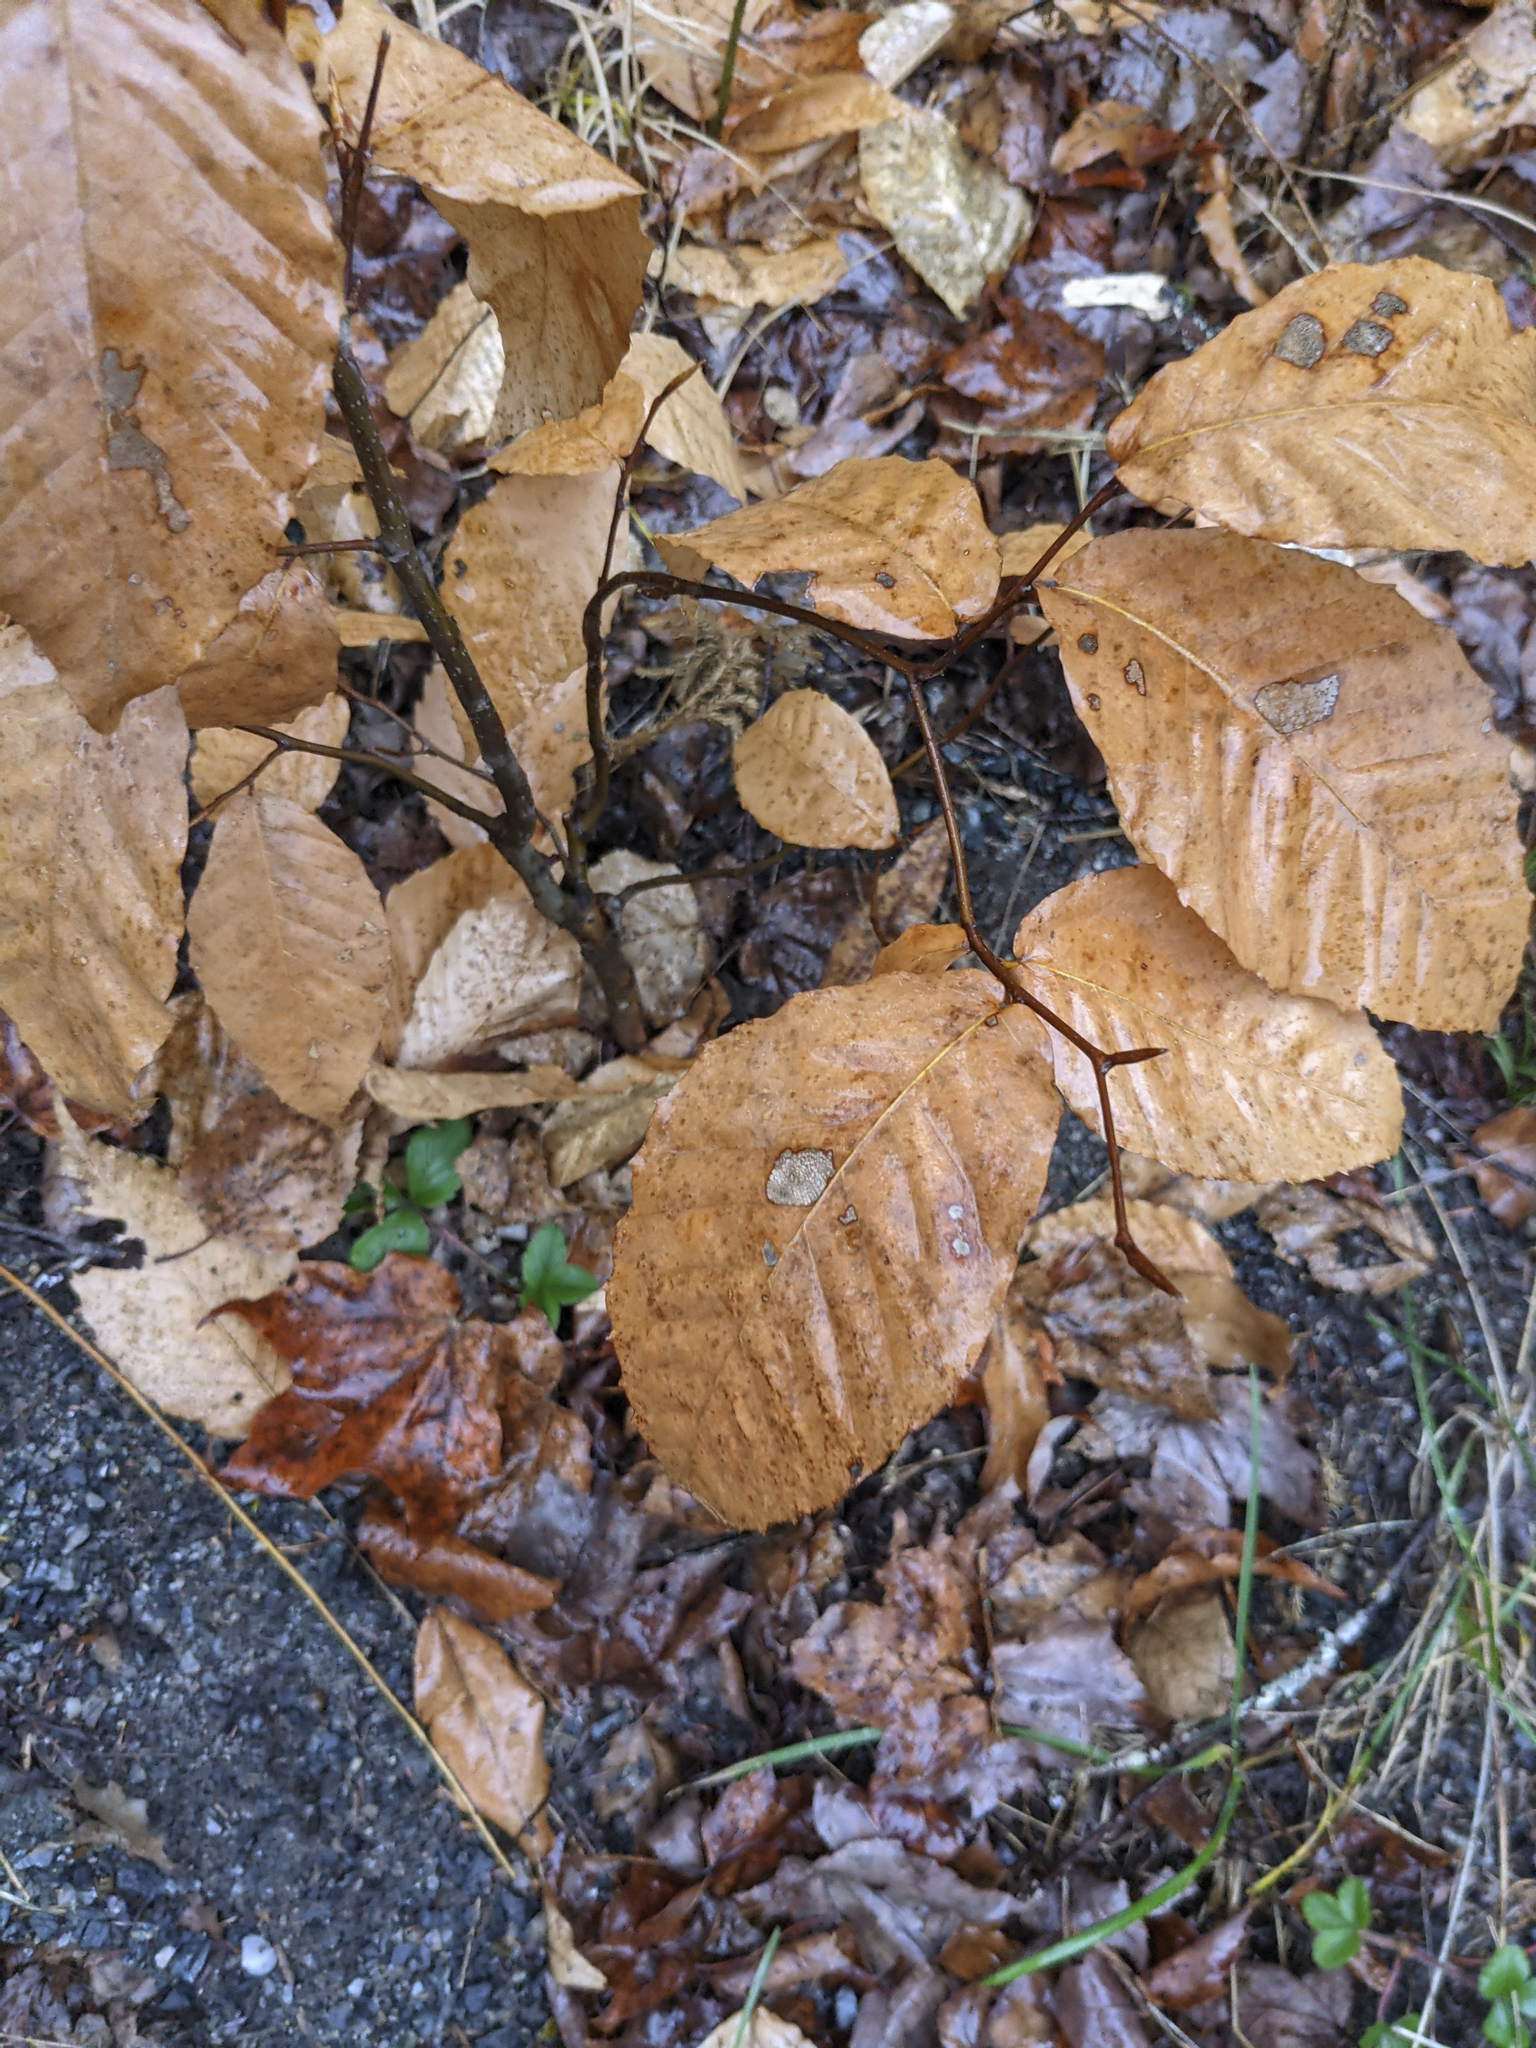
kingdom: Plantae
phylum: Tracheophyta
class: Magnoliopsida
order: Fagales
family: Fagaceae
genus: Fagus
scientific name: Fagus grandifolia
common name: American beech
